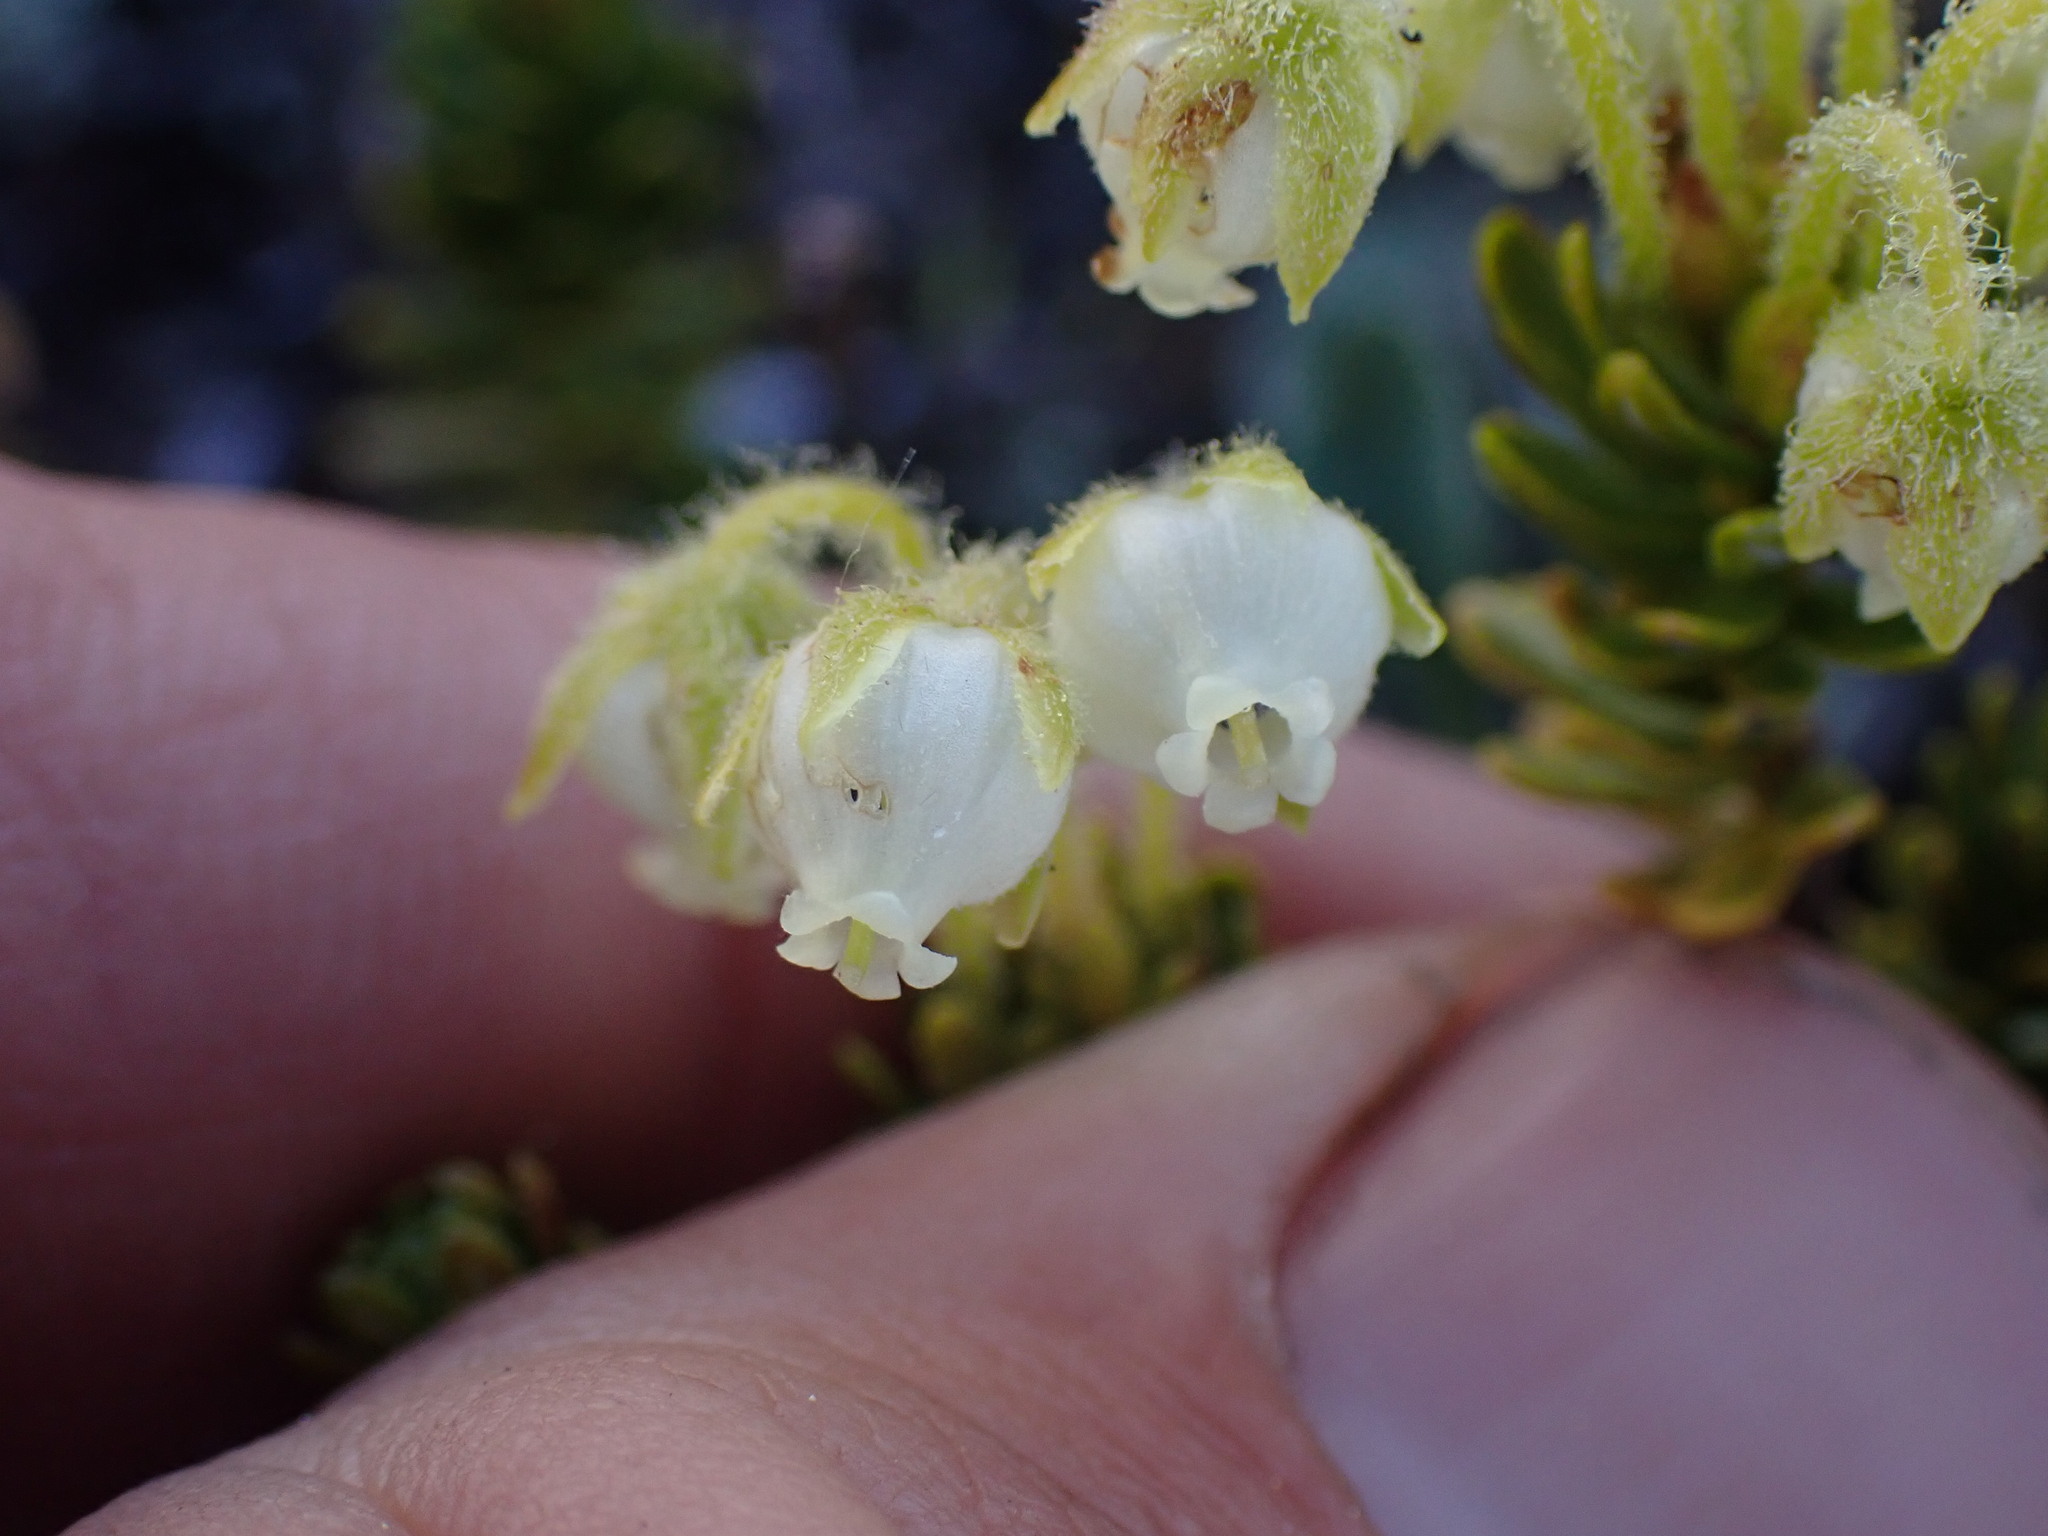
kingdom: Plantae
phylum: Tracheophyta
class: Magnoliopsida
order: Ericales
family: Ericaceae
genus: Phyllodoce
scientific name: Phyllodoce glanduliflora
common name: Cream mountain heather
